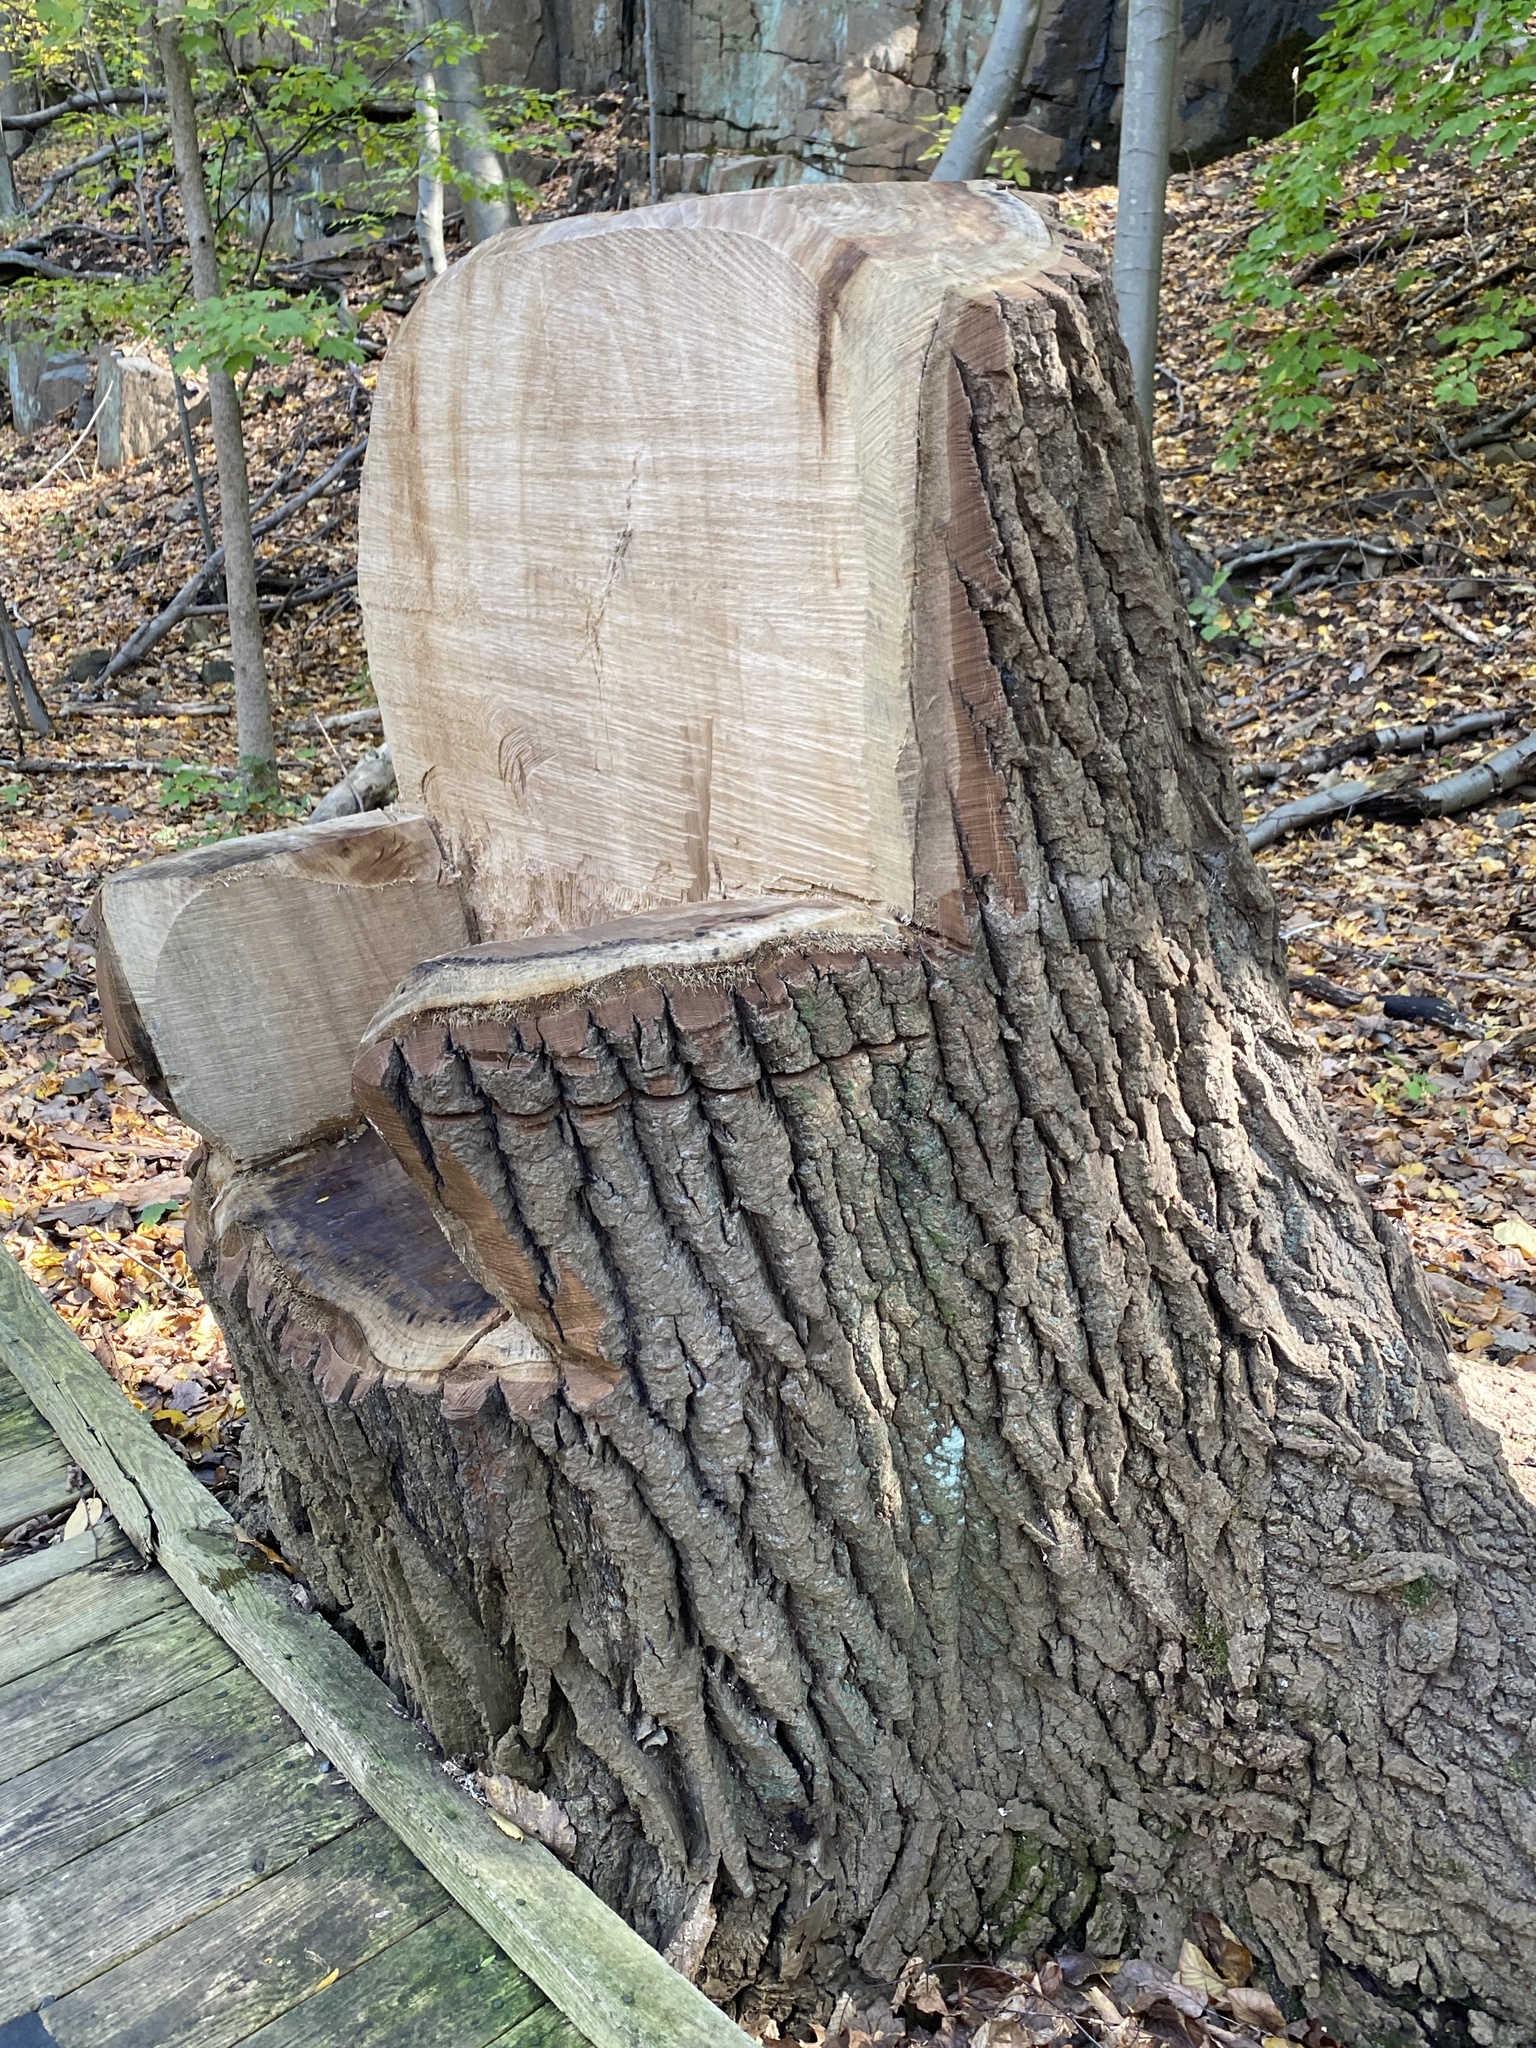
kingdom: Plantae
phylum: Tracheophyta
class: Magnoliopsida
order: Malpighiales
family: Salicaceae
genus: Populus
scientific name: Populus deltoides
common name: Eastern cottonwood
